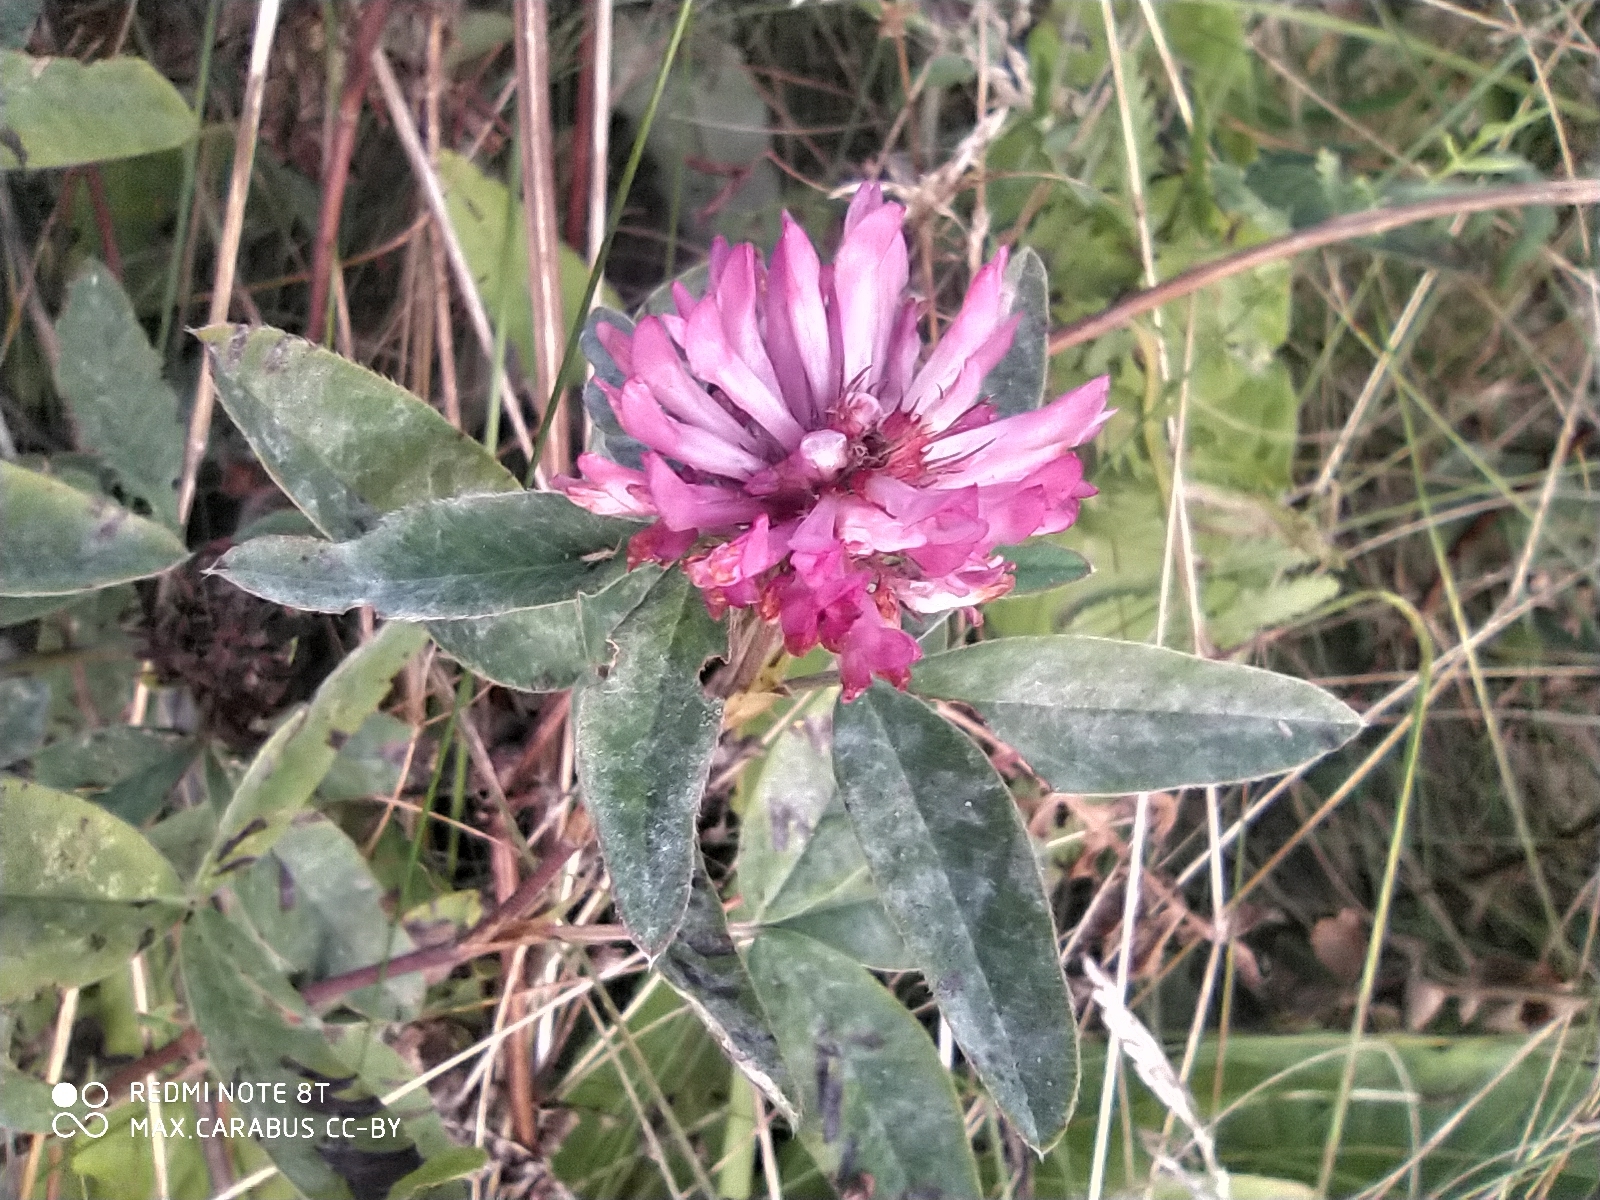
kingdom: Plantae
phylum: Tracheophyta
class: Magnoliopsida
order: Fabales
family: Fabaceae
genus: Trifolium
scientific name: Trifolium medium
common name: Zigzag clover
